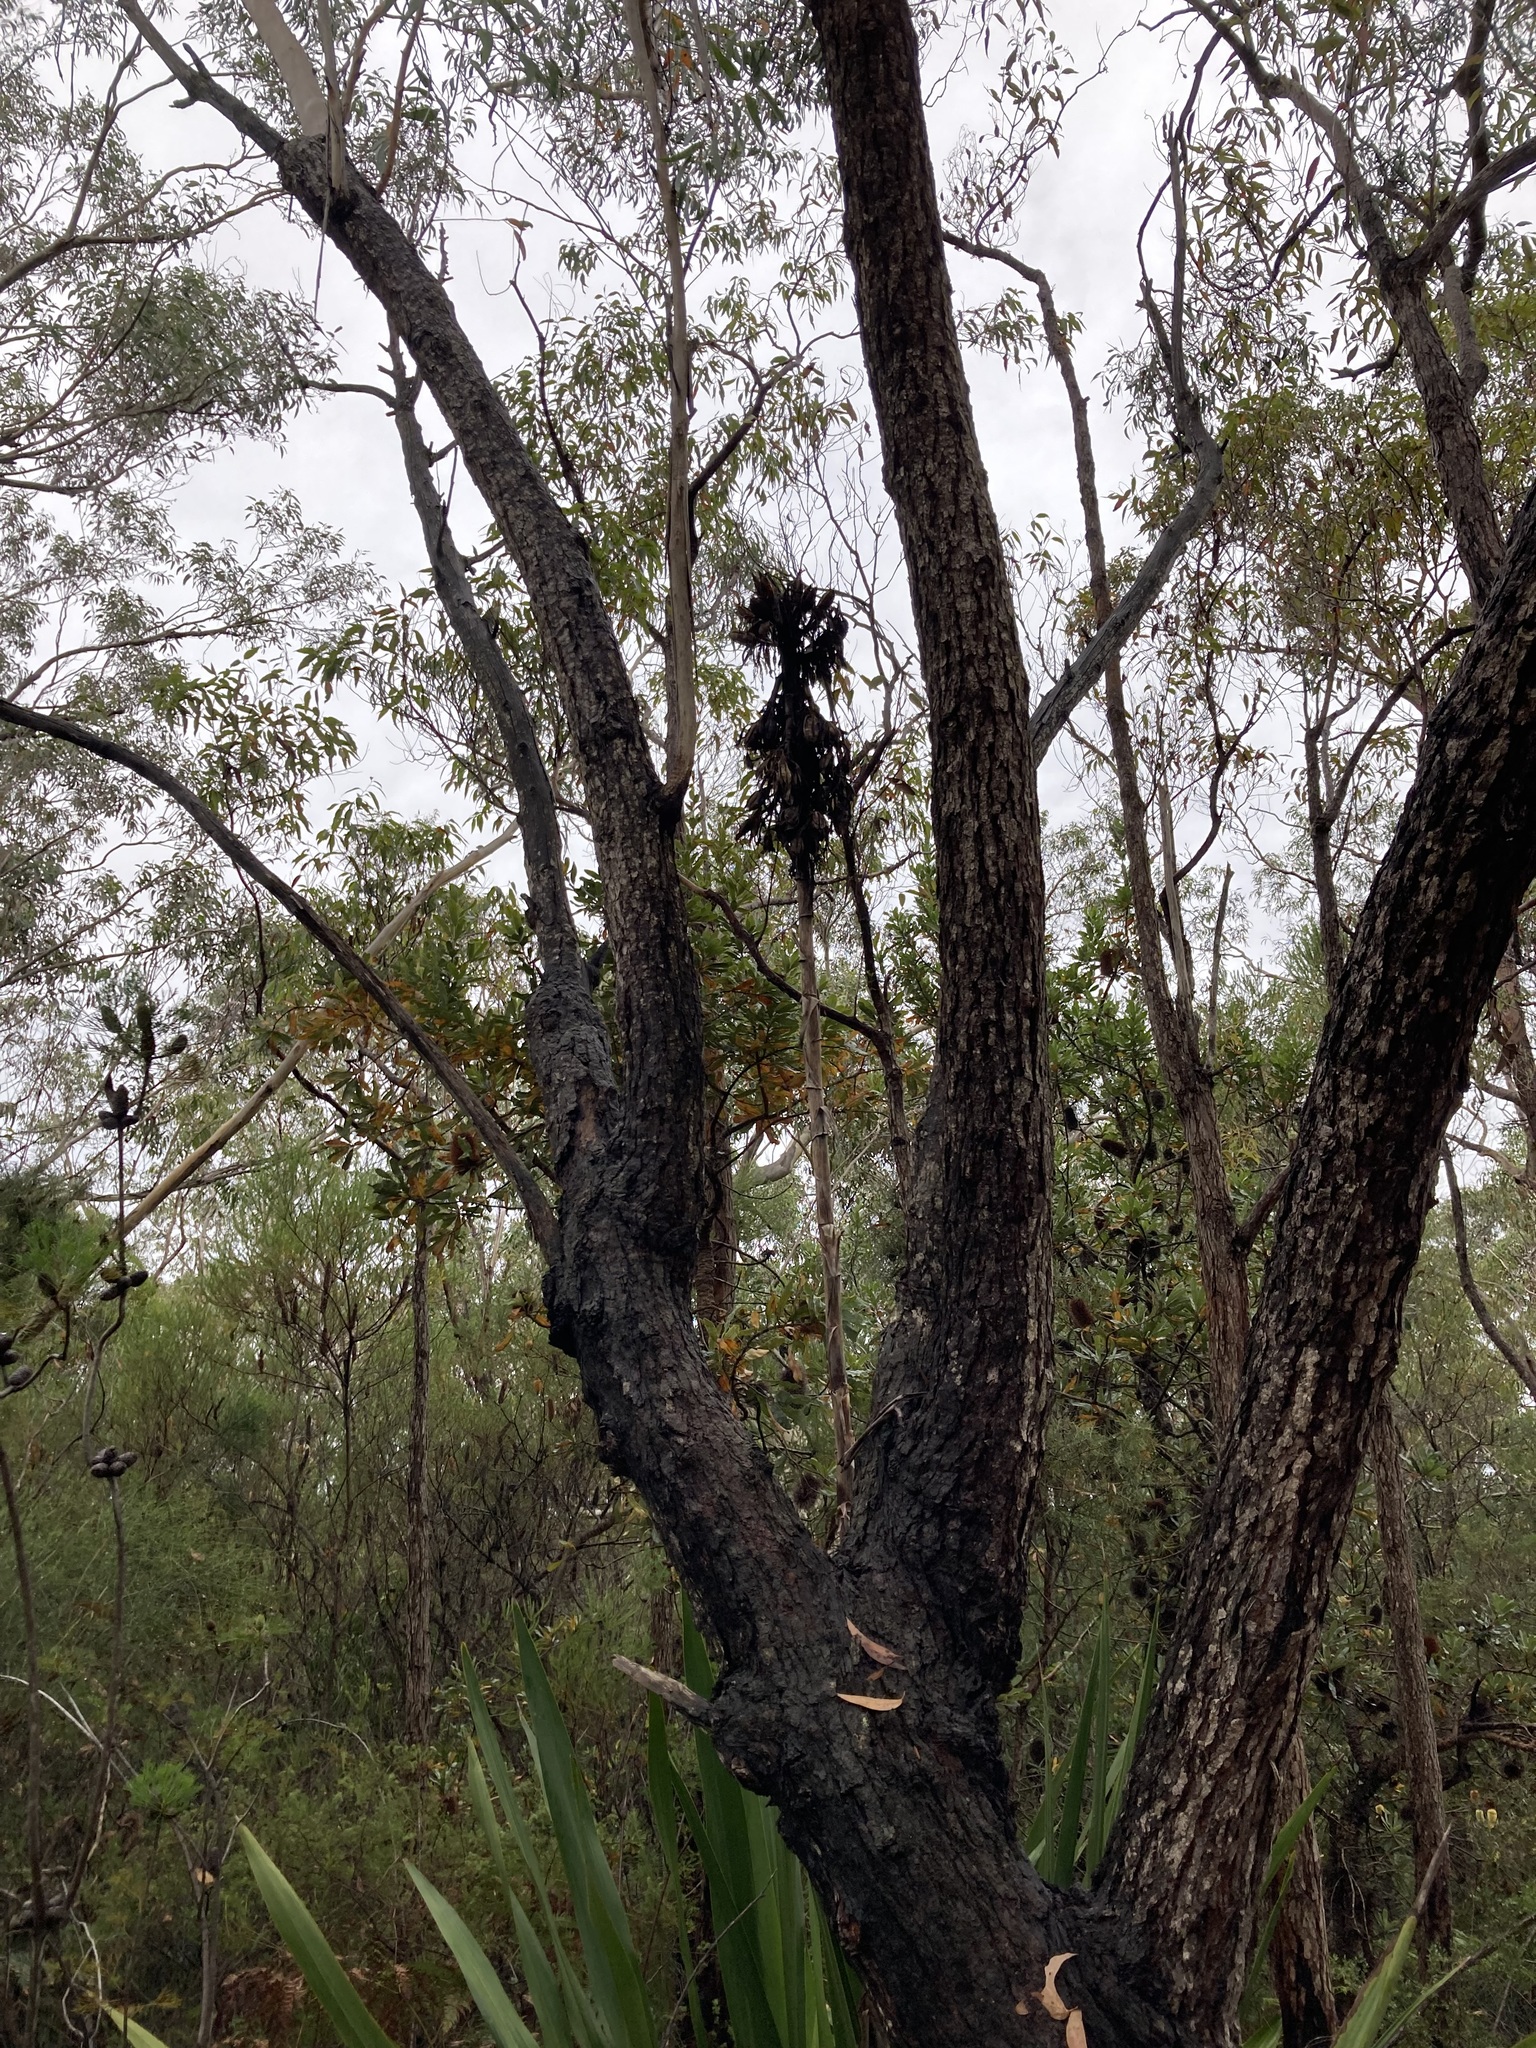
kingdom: Plantae
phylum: Tracheophyta
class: Liliopsida
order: Asparagales
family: Doryanthaceae
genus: Doryanthes
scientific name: Doryanthes excelsa
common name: Giant-lily
